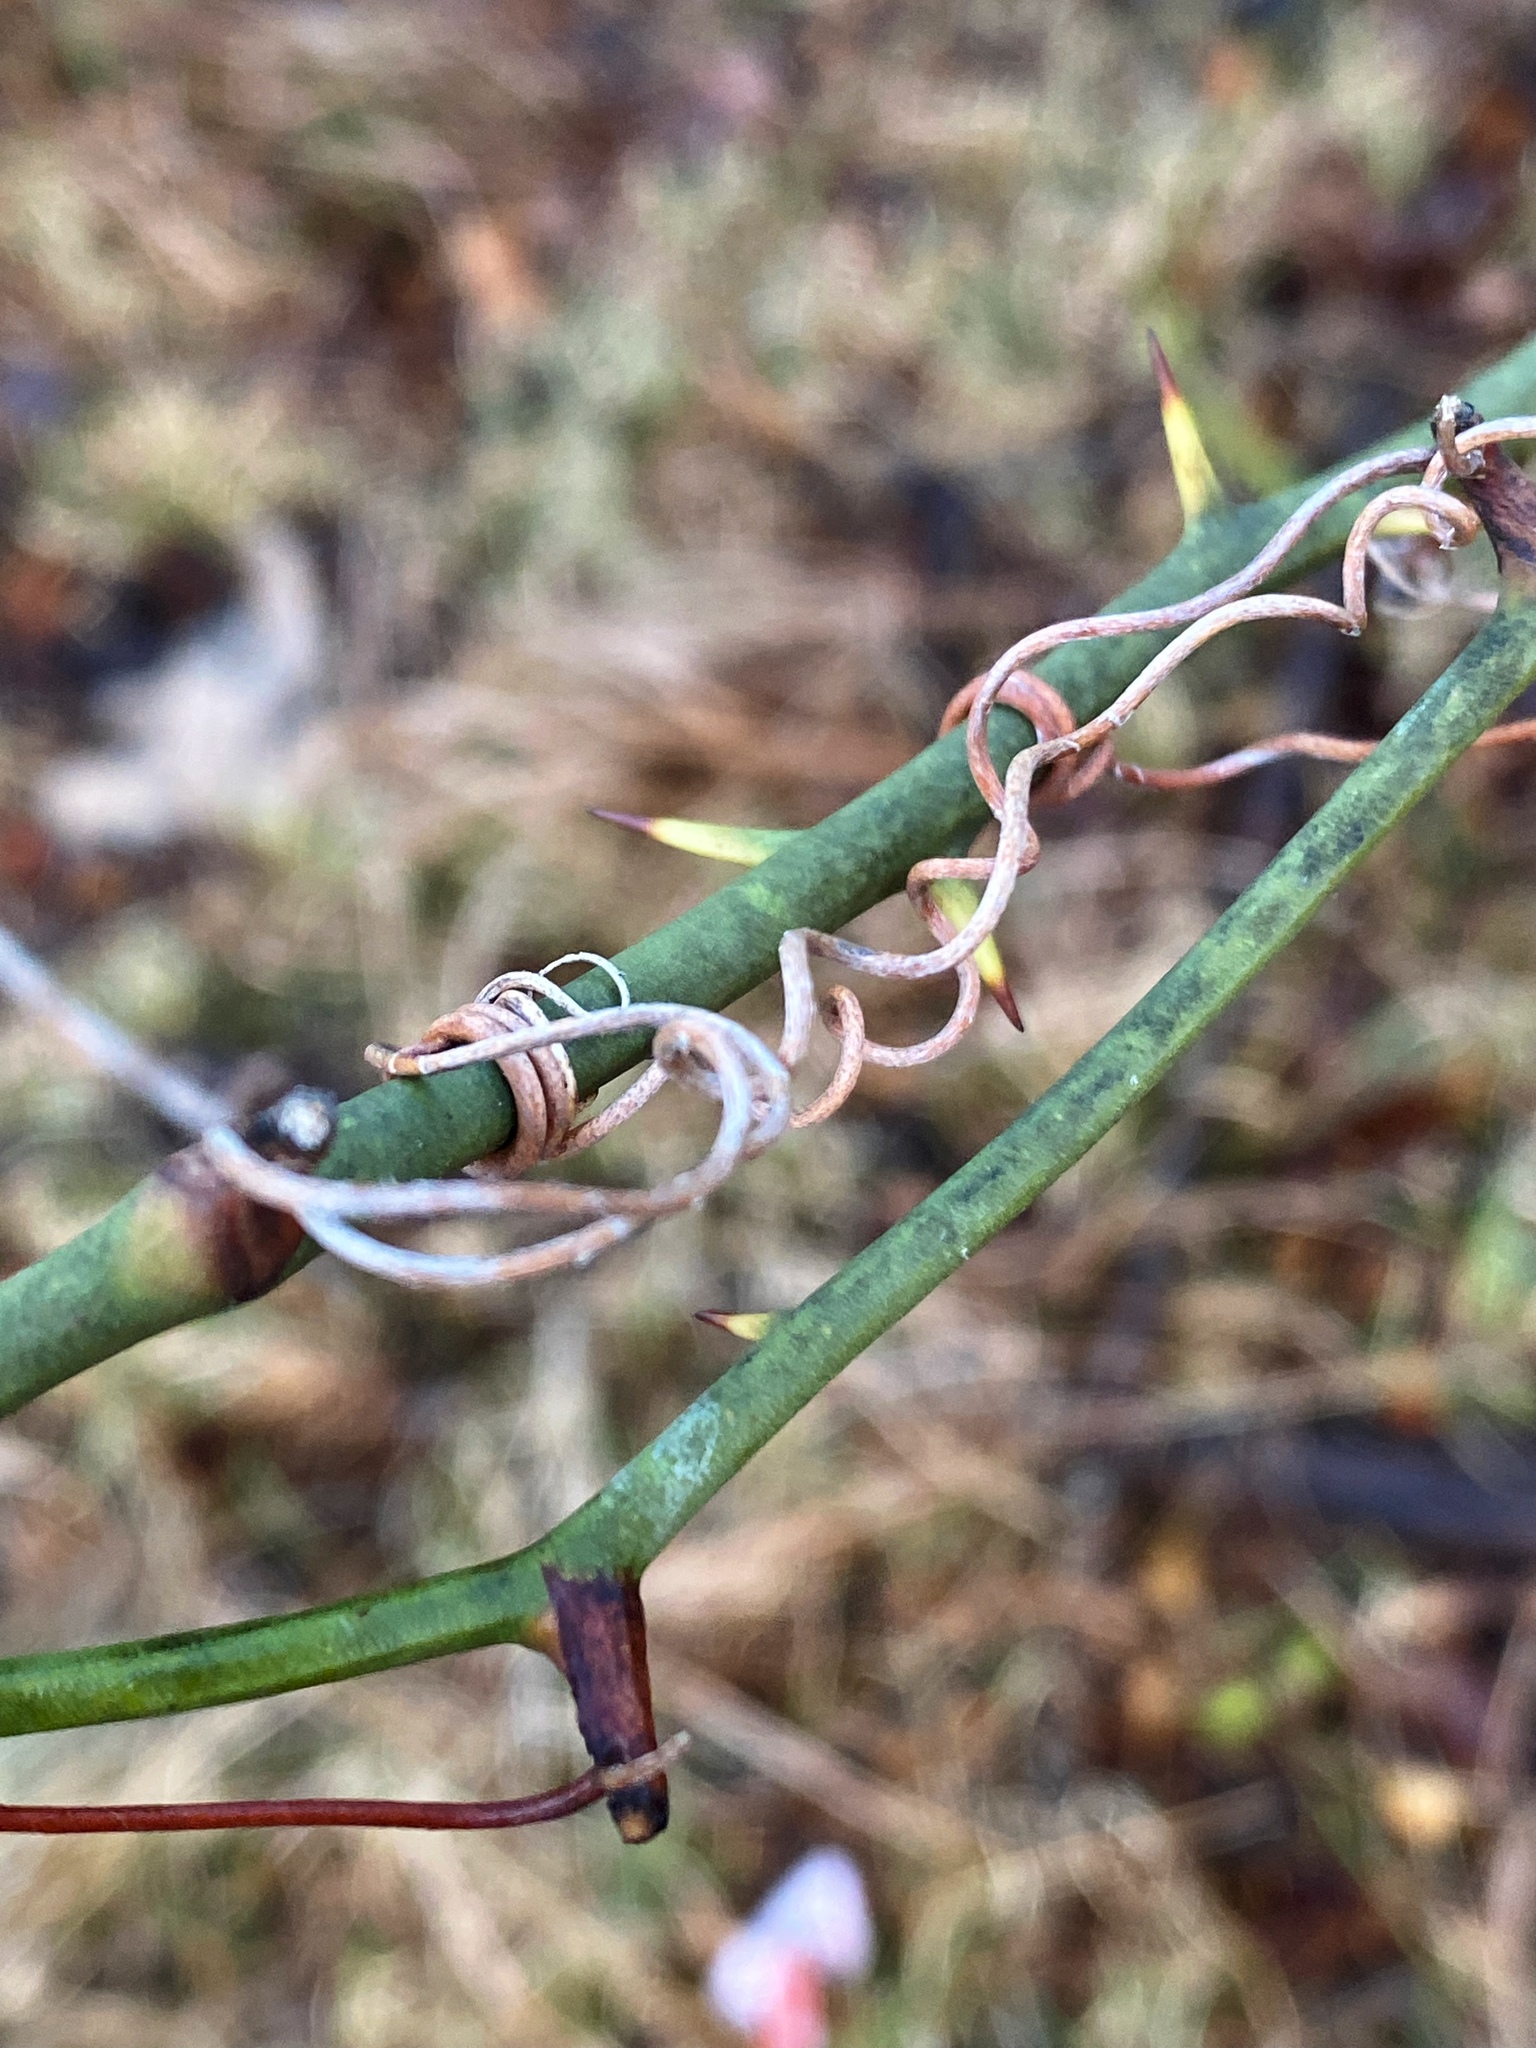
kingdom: Plantae
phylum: Tracheophyta
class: Liliopsida
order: Liliales
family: Smilacaceae
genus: Smilax
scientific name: Smilax rotundifolia
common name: Bullbriar
